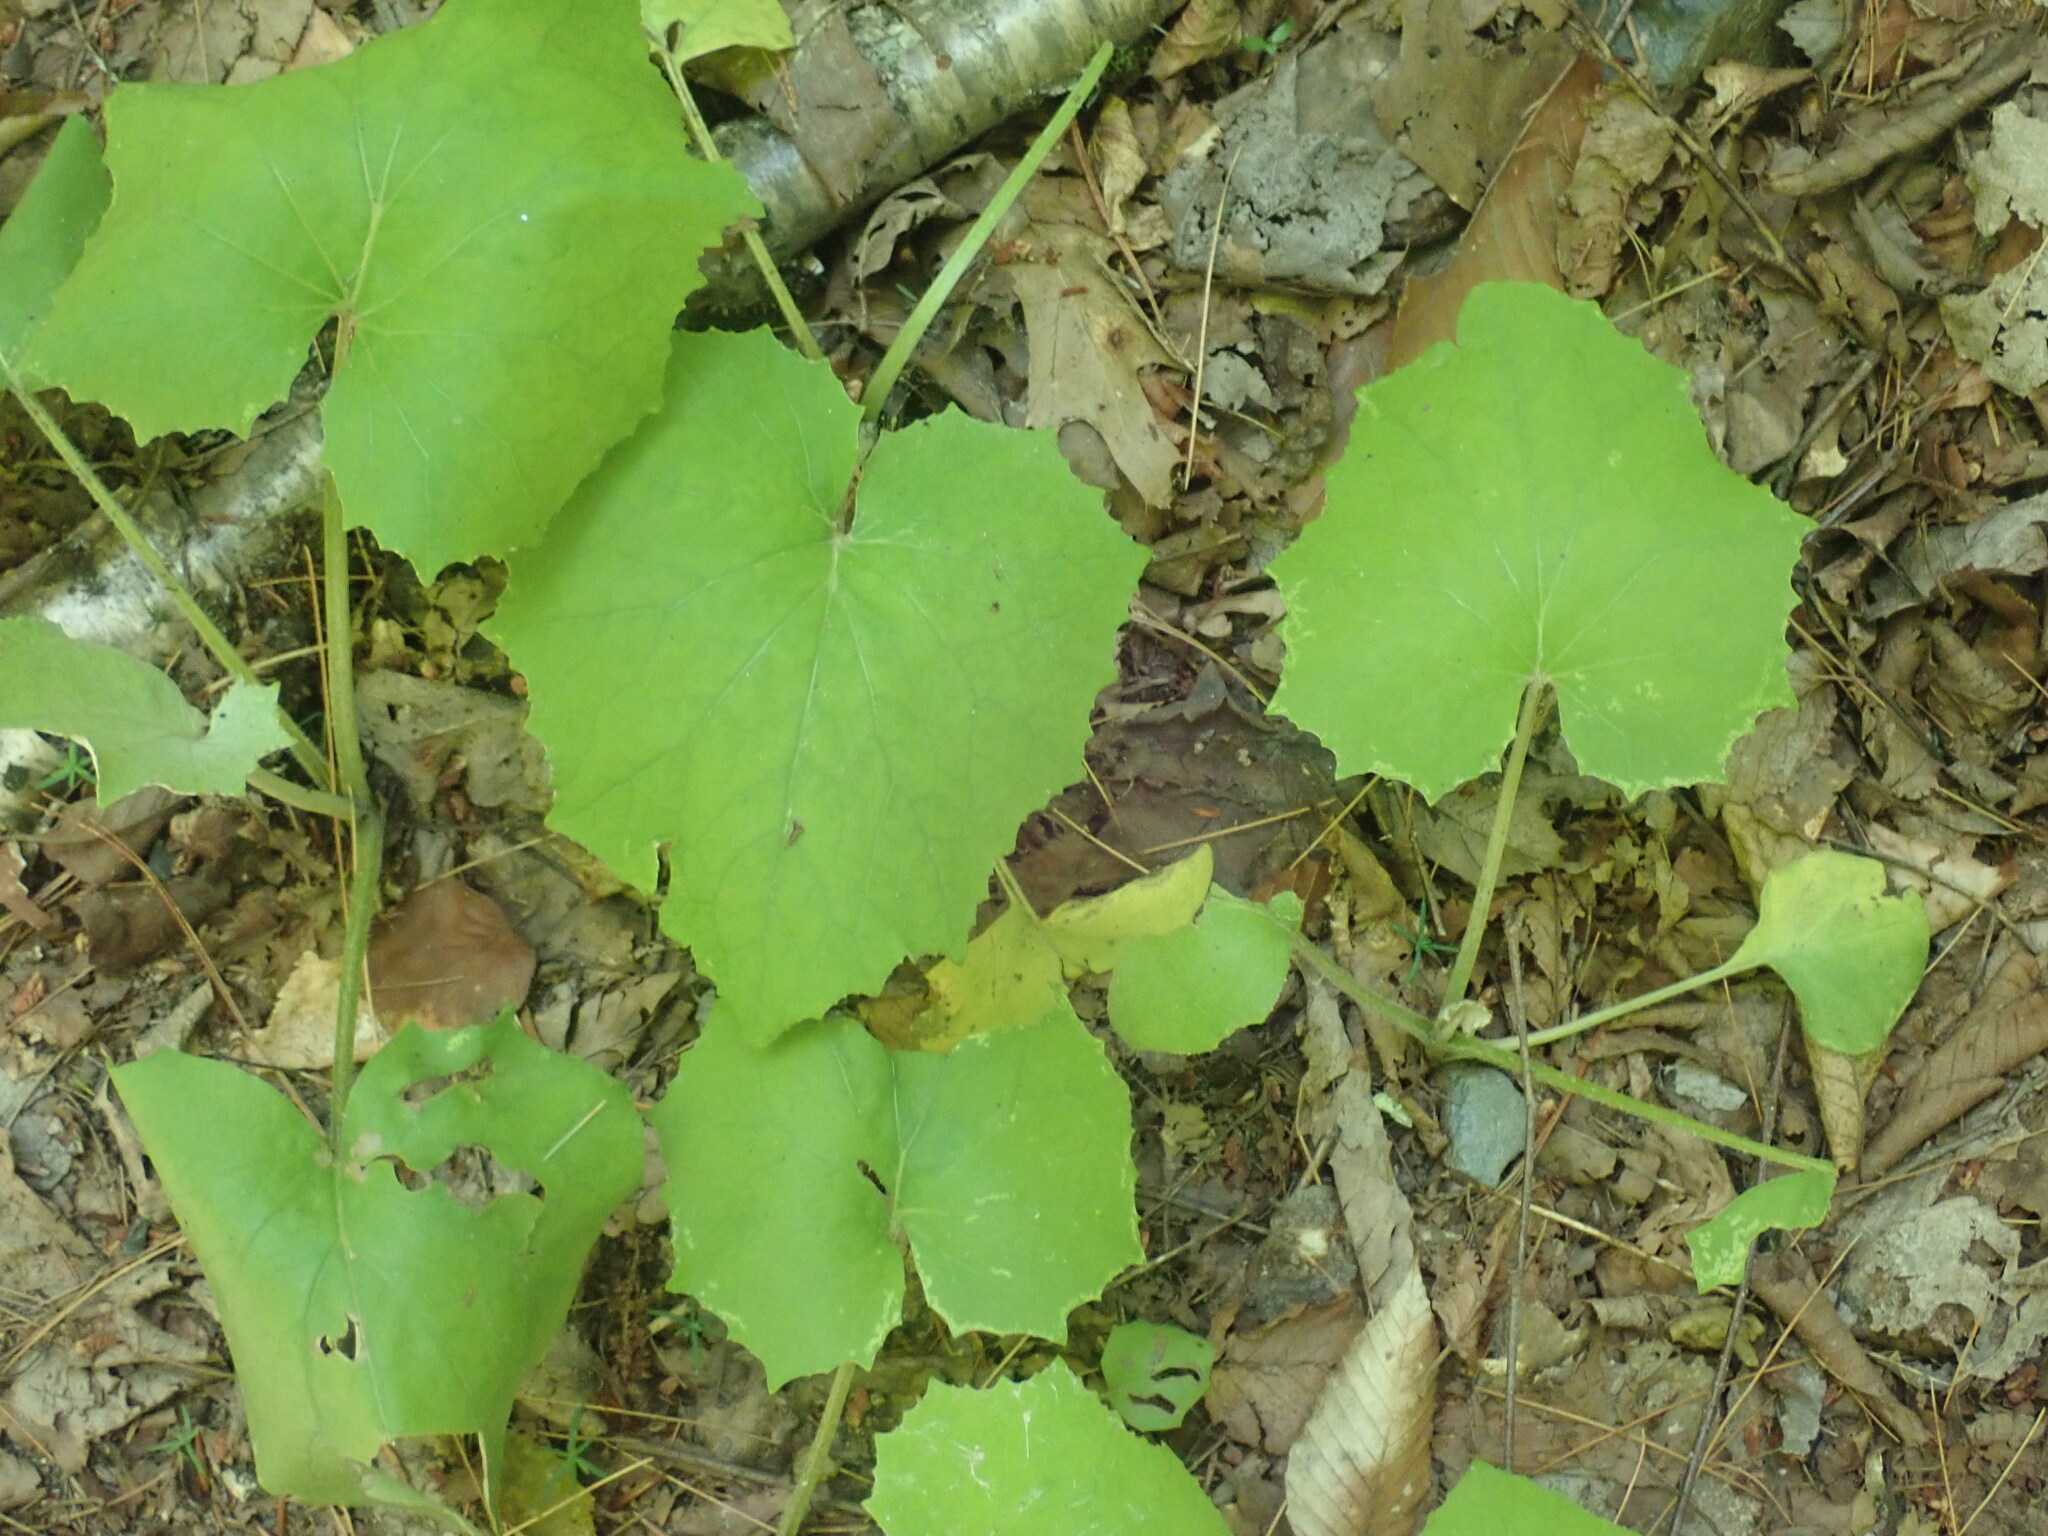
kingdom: Plantae
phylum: Tracheophyta
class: Magnoliopsida
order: Asterales
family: Asteraceae
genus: Tussilago
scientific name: Tussilago farfara
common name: Coltsfoot
